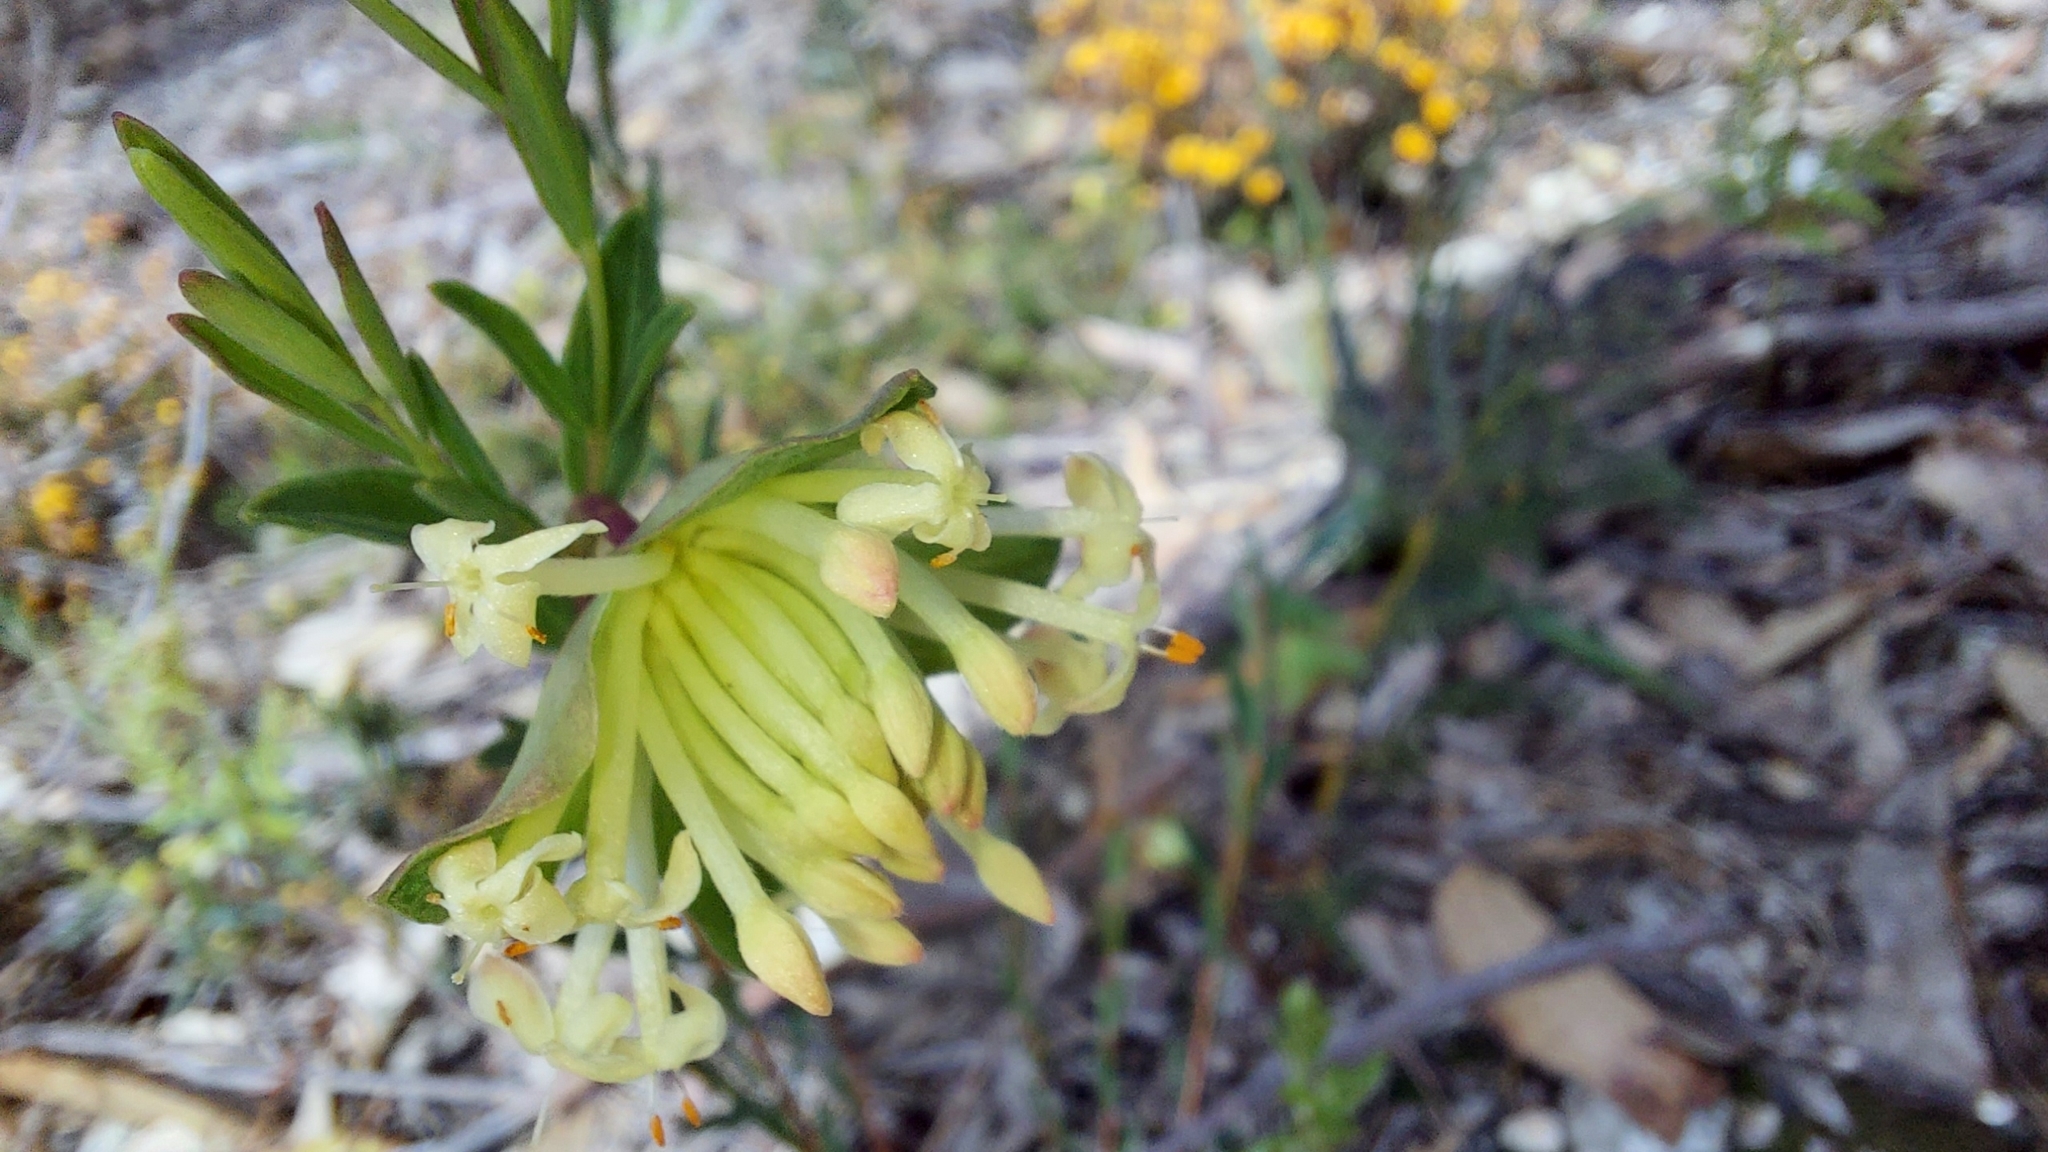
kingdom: Plantae
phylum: Tracheophyta
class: Magnoliopsida
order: Malvales
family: Thymelaeaceae
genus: Pimelea
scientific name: Pimelea linifolia
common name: Queen-of-the-bush
